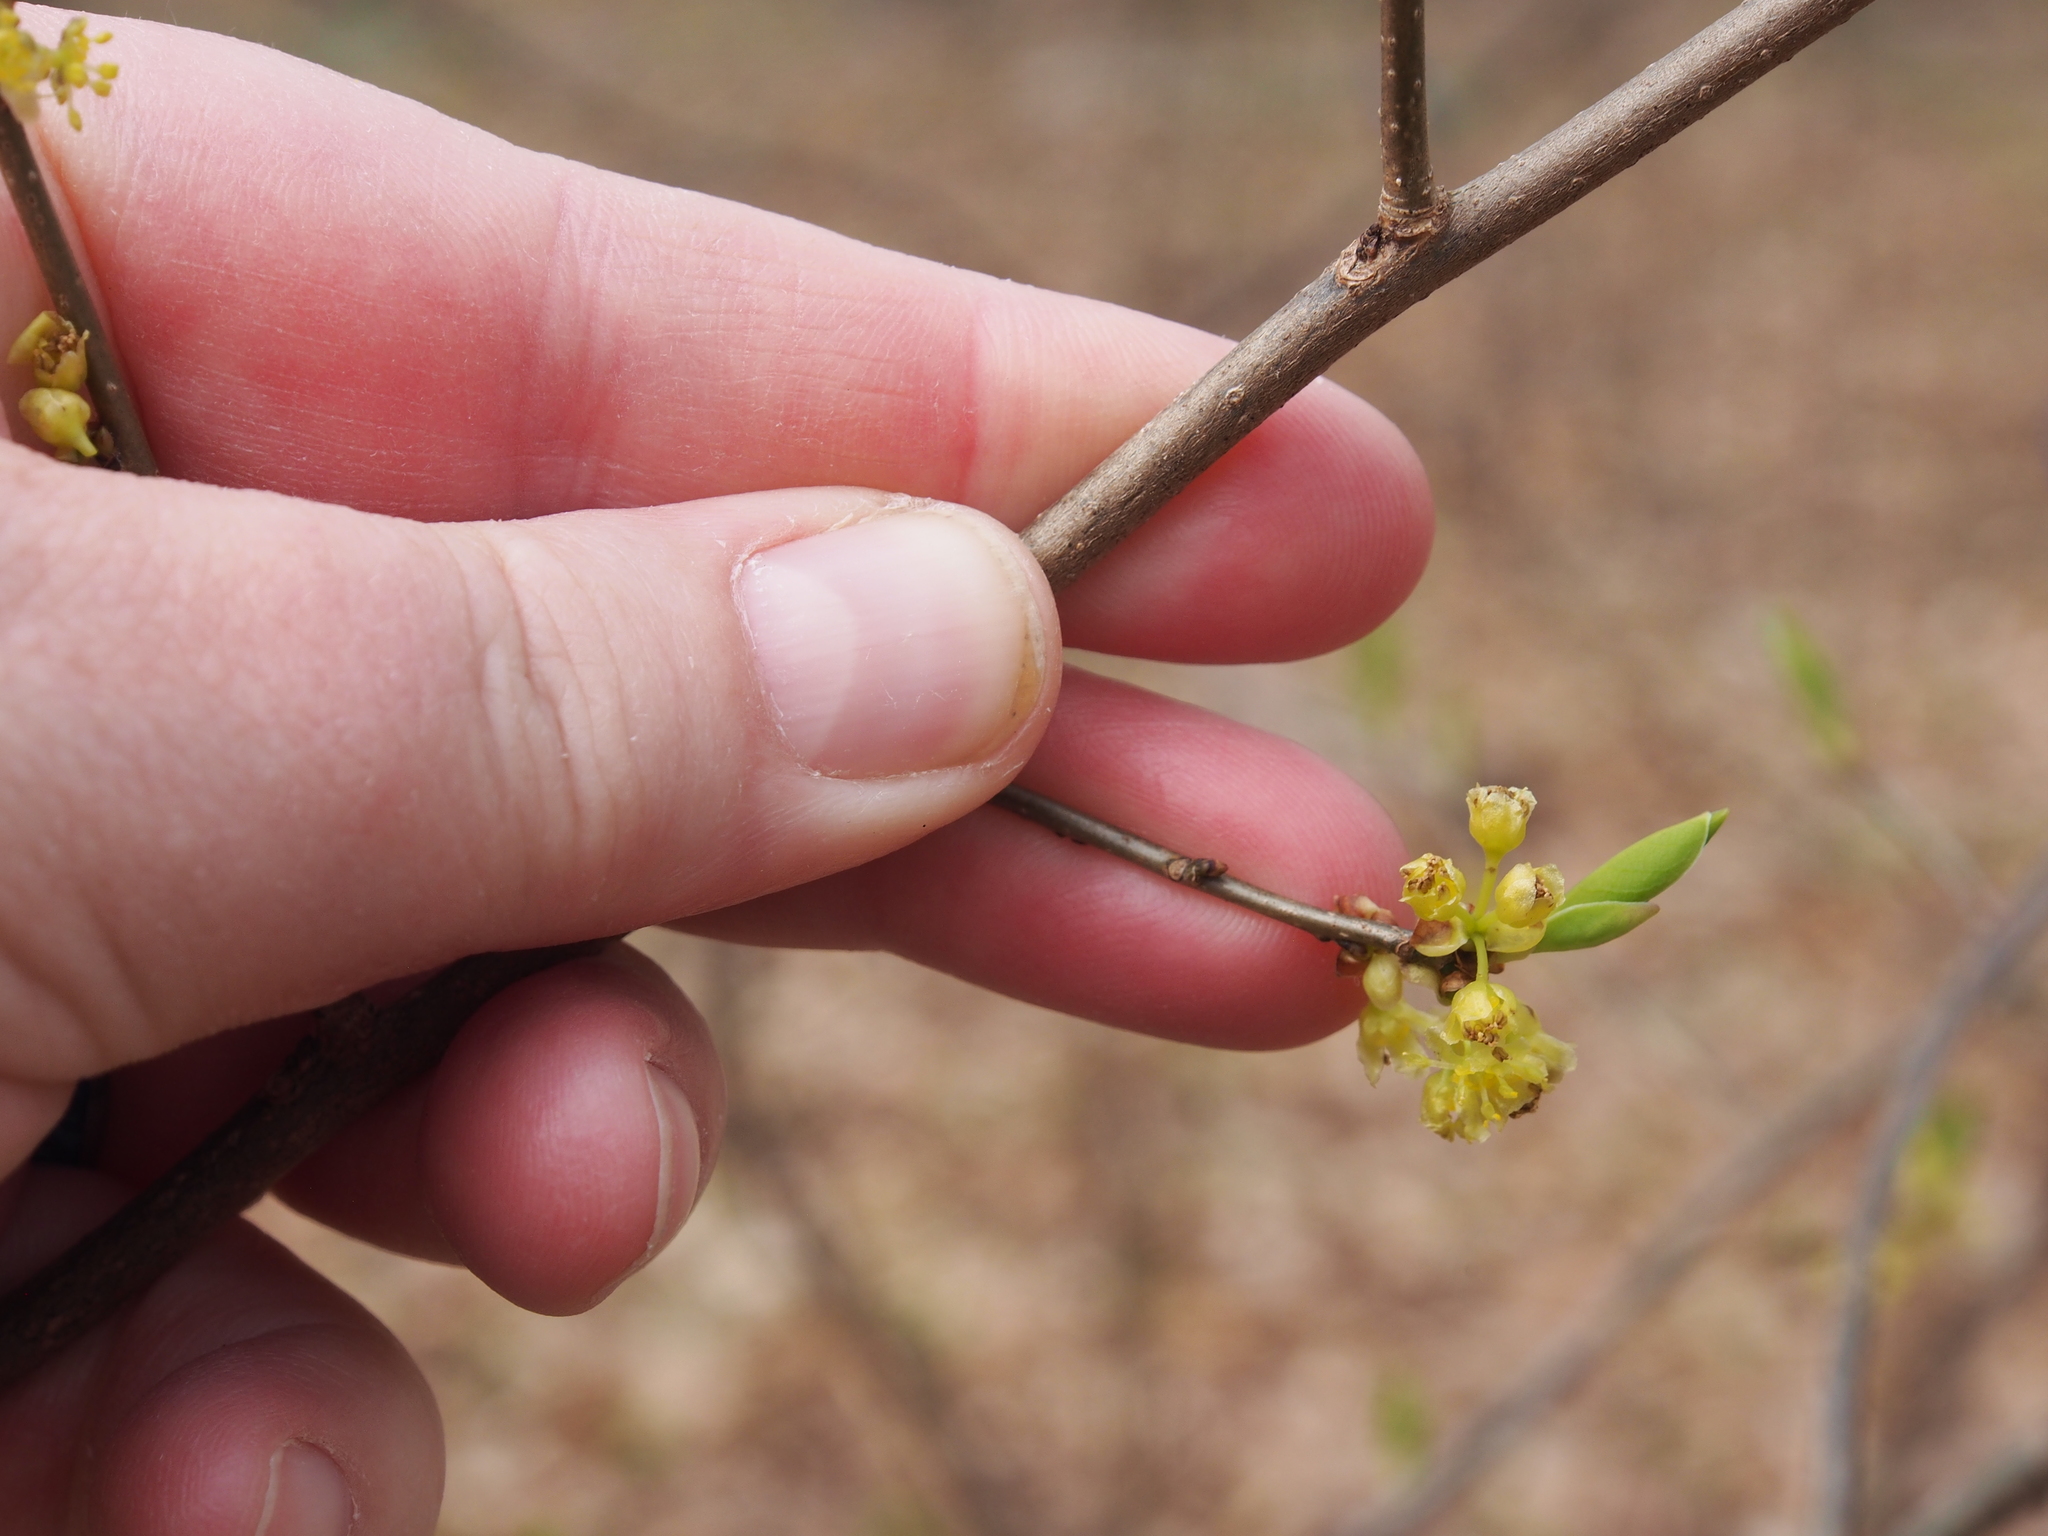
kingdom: Plantae
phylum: Tracheophyta
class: Magnoliopsida
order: Laurales
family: Lauraceae
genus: Lindera
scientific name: Lindera benzoin
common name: Spicebush
